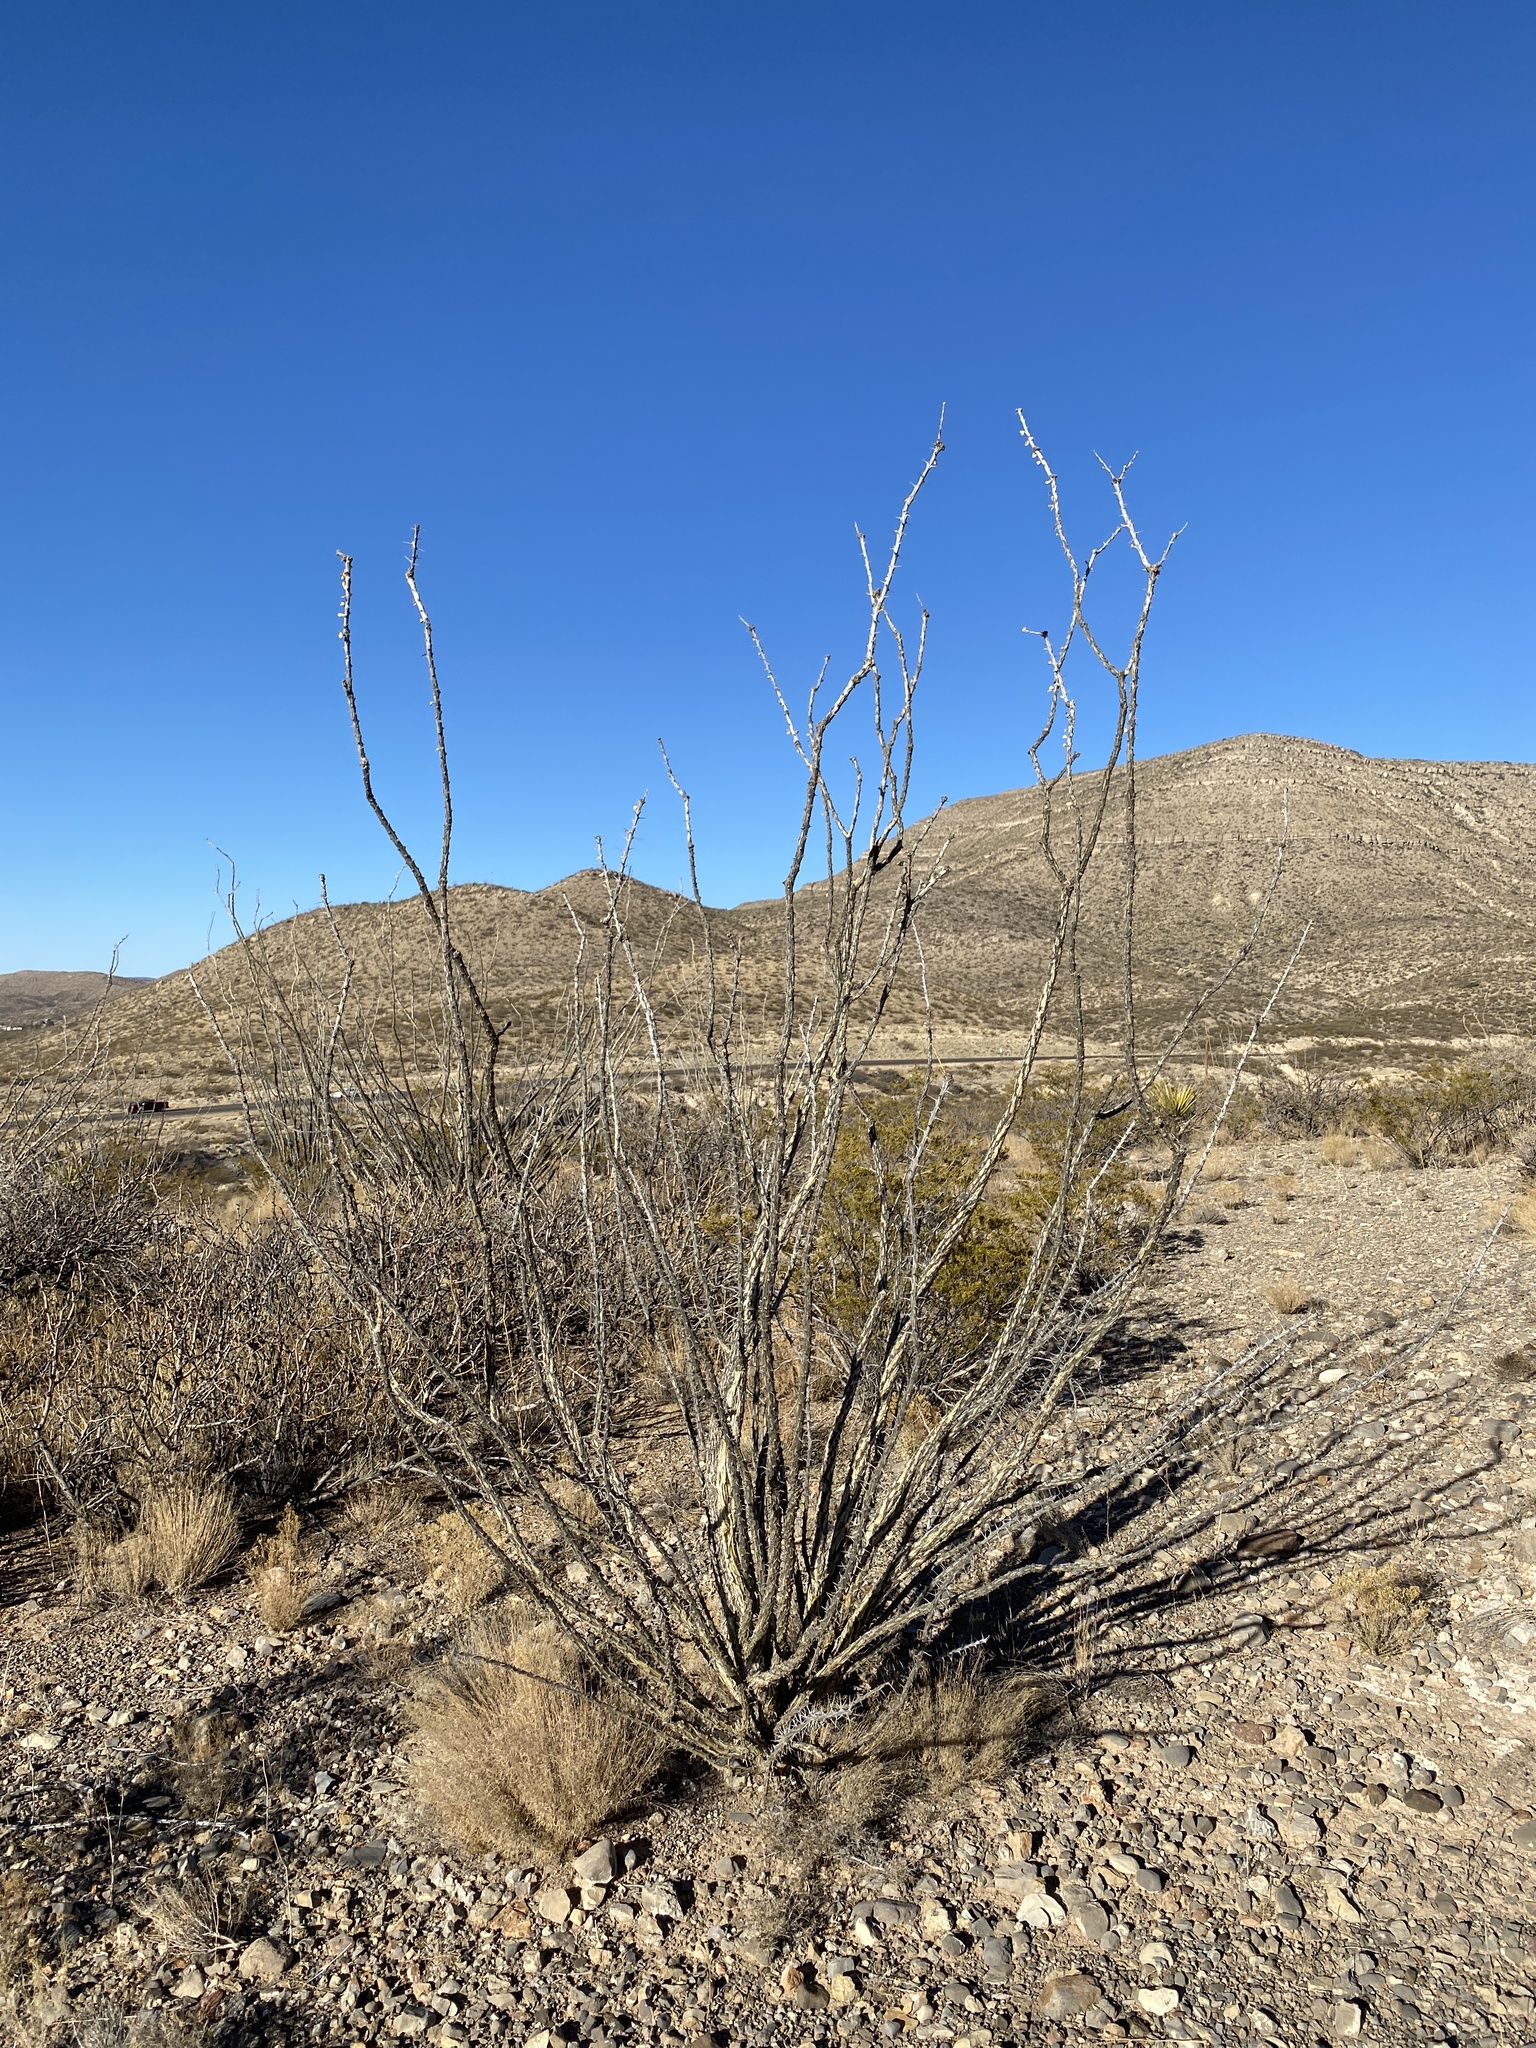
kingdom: Plantae
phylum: Tracheophyta
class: Magnoliopsida
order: Ericales
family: Fouquieriaceae
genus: Fouquieria
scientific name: Fouquieria splendens
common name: Vine-cactus
